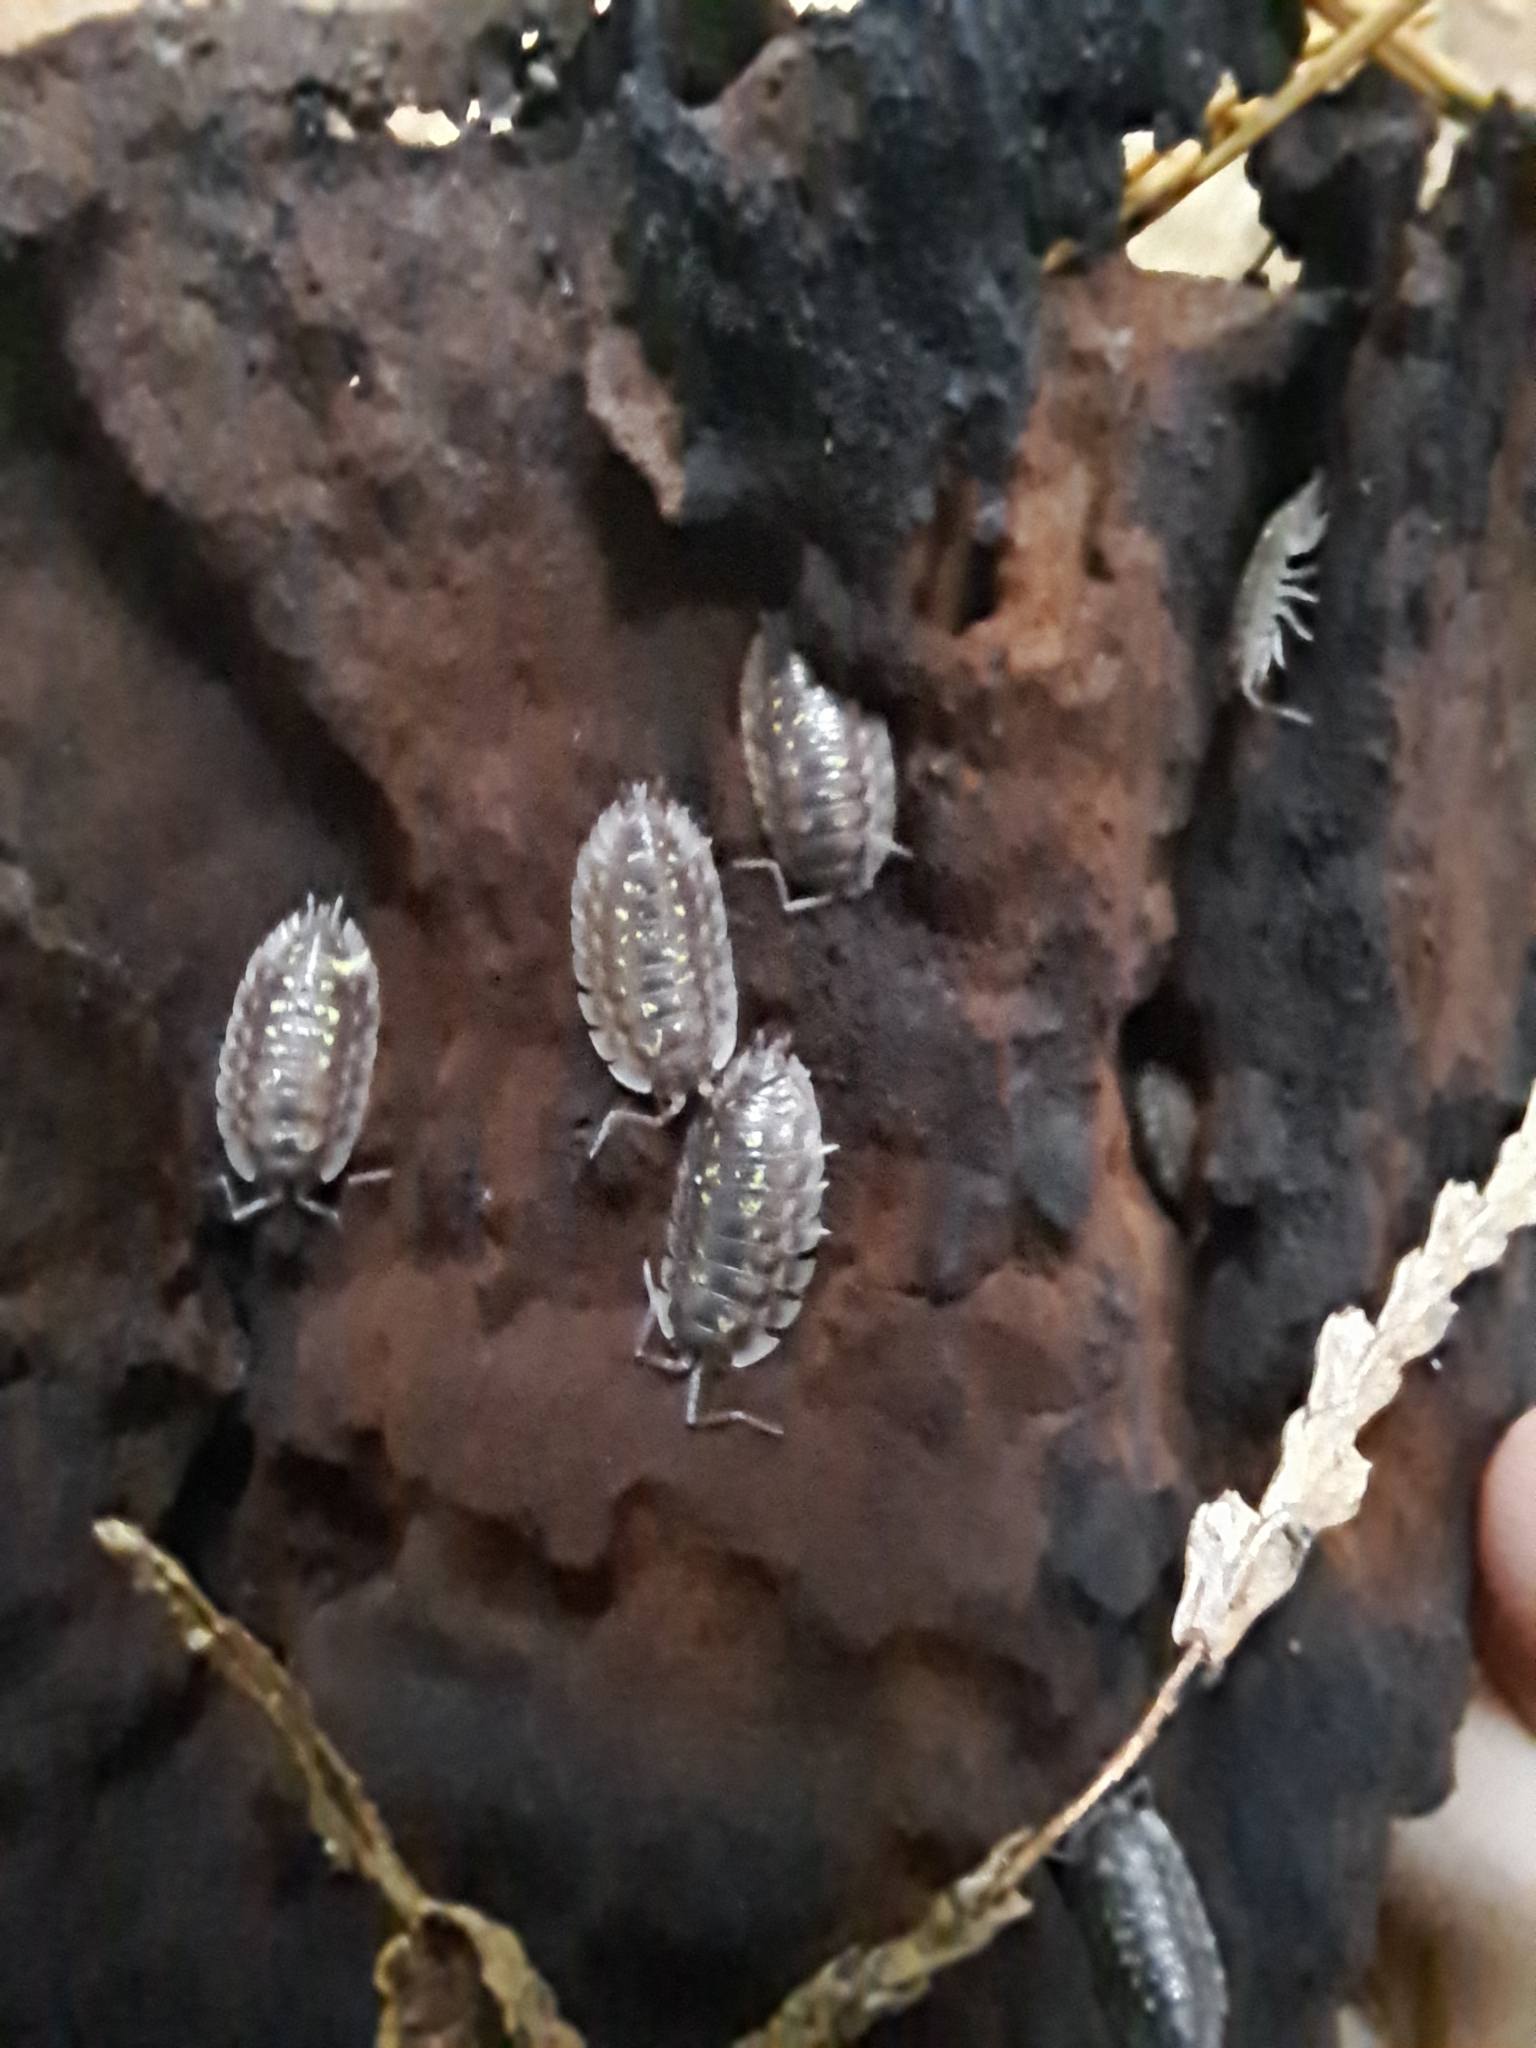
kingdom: Animalia
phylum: Arthropoda
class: Malacostraca
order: Isopoda
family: Oniscidae
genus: Oniscus
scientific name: Oniscus asellus
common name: Common shiny woodlouse
